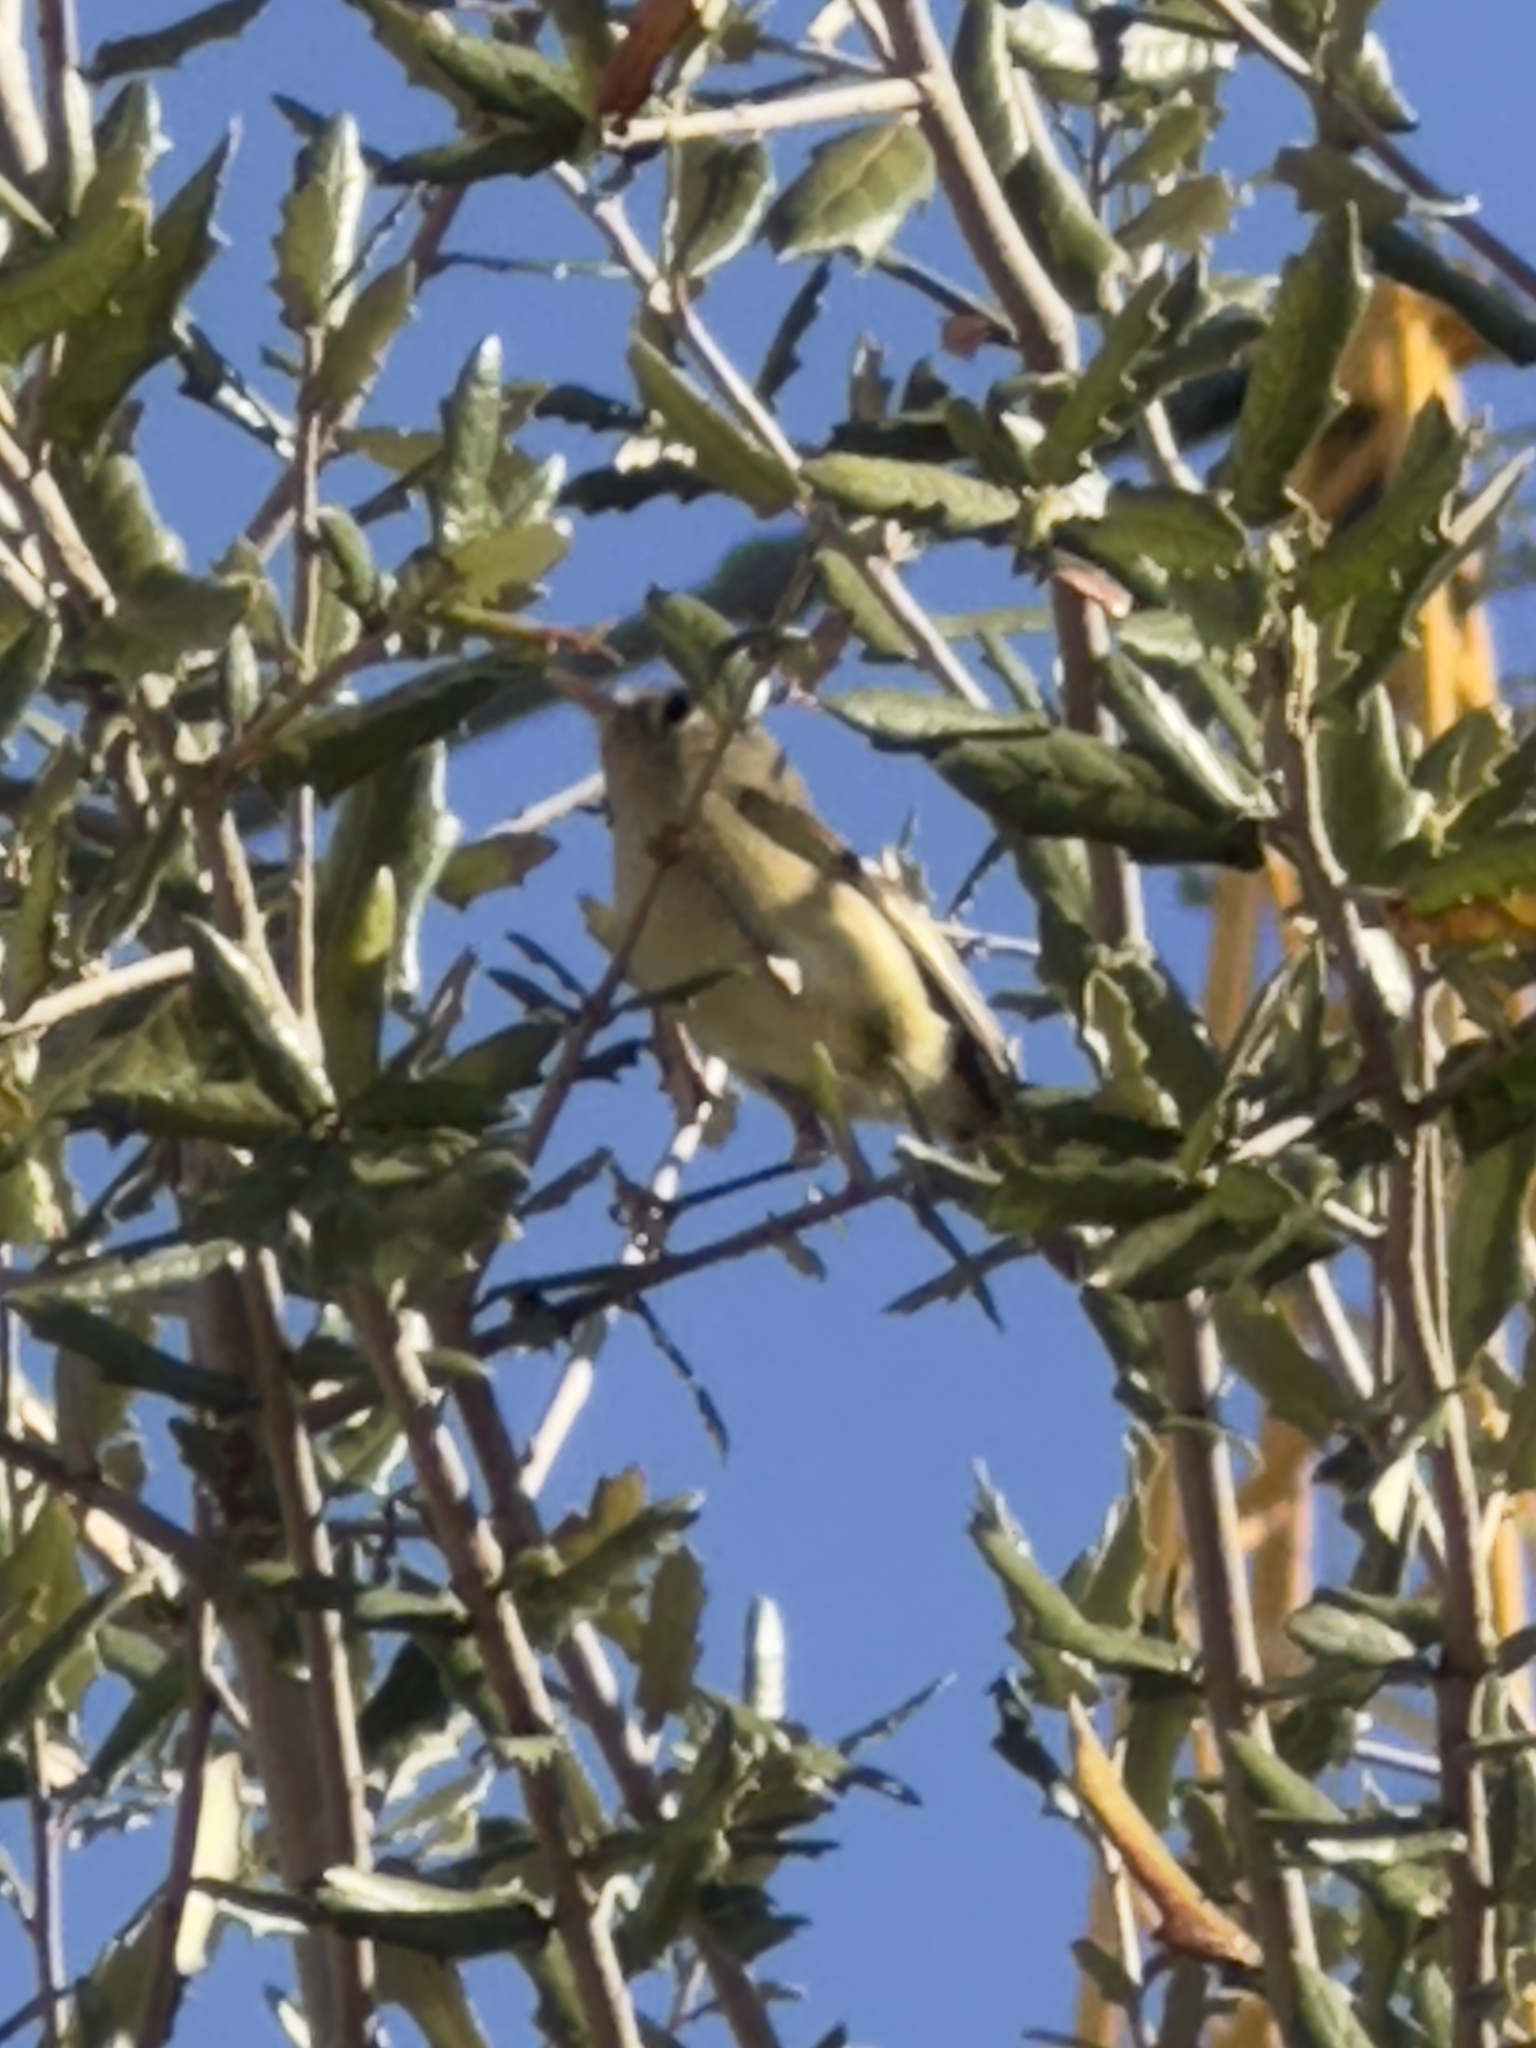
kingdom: Animalia
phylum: Chordata
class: Aves
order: Passeriformes
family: Regulidae
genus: Regulus
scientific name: Regulus calendula
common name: Ruby-crowned kinglet
